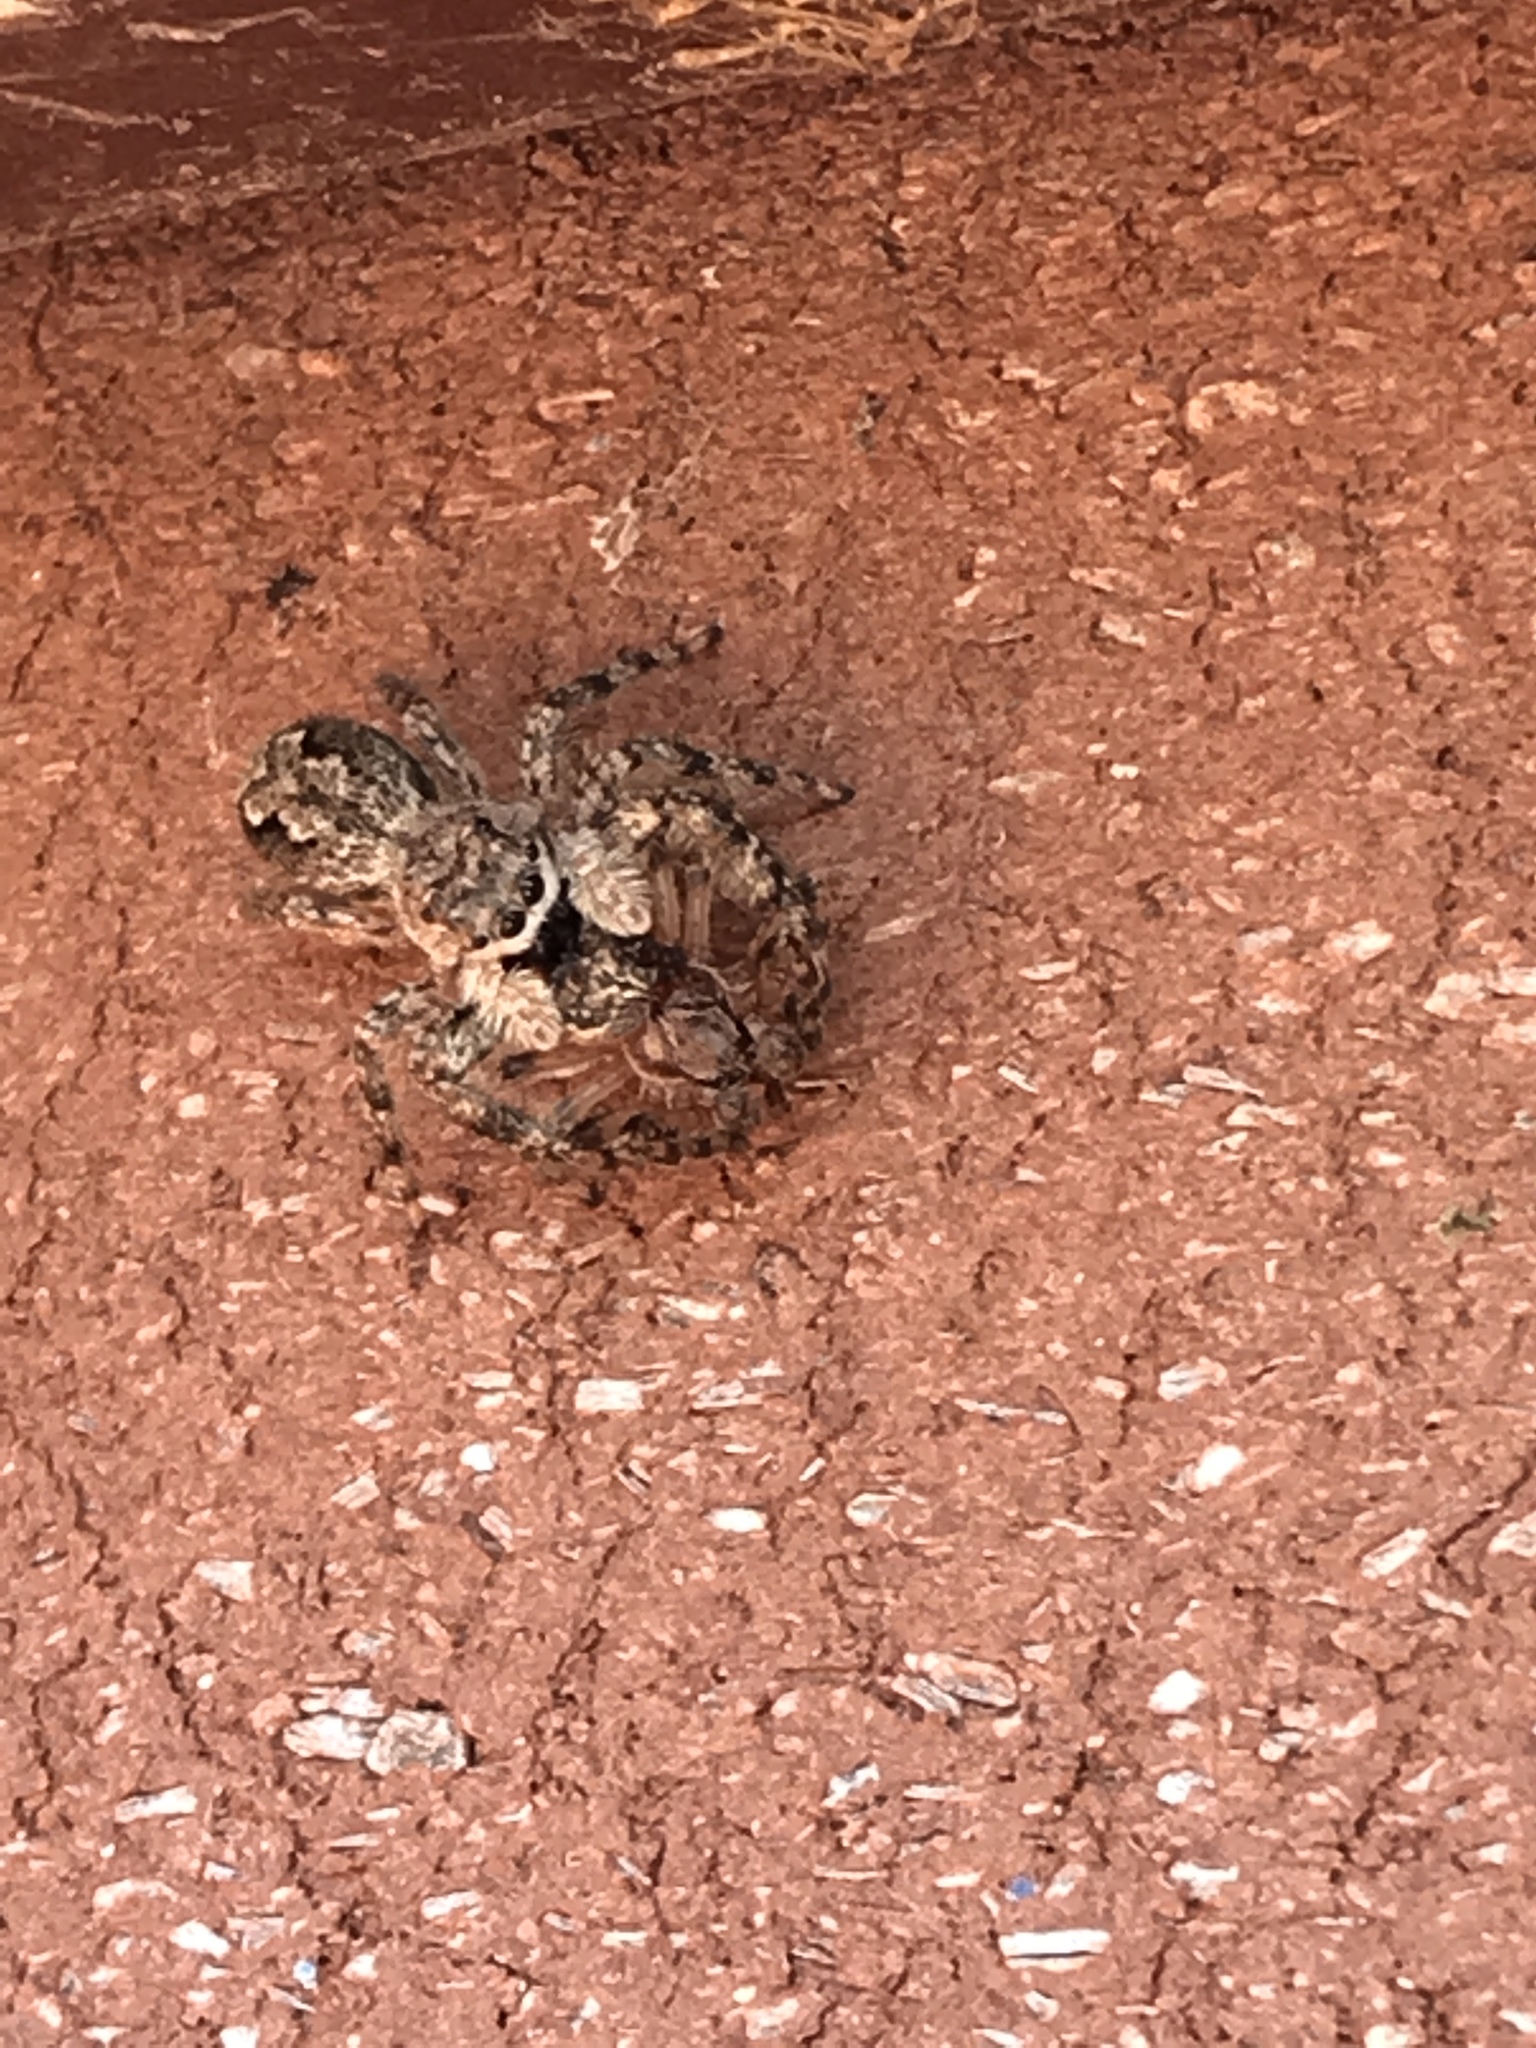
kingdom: Animalia
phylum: Arthropoda
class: Arachnida
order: Araneae
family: Salticidae
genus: Platycryptus
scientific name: Platycryptus undatus
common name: Tan jumping spider
